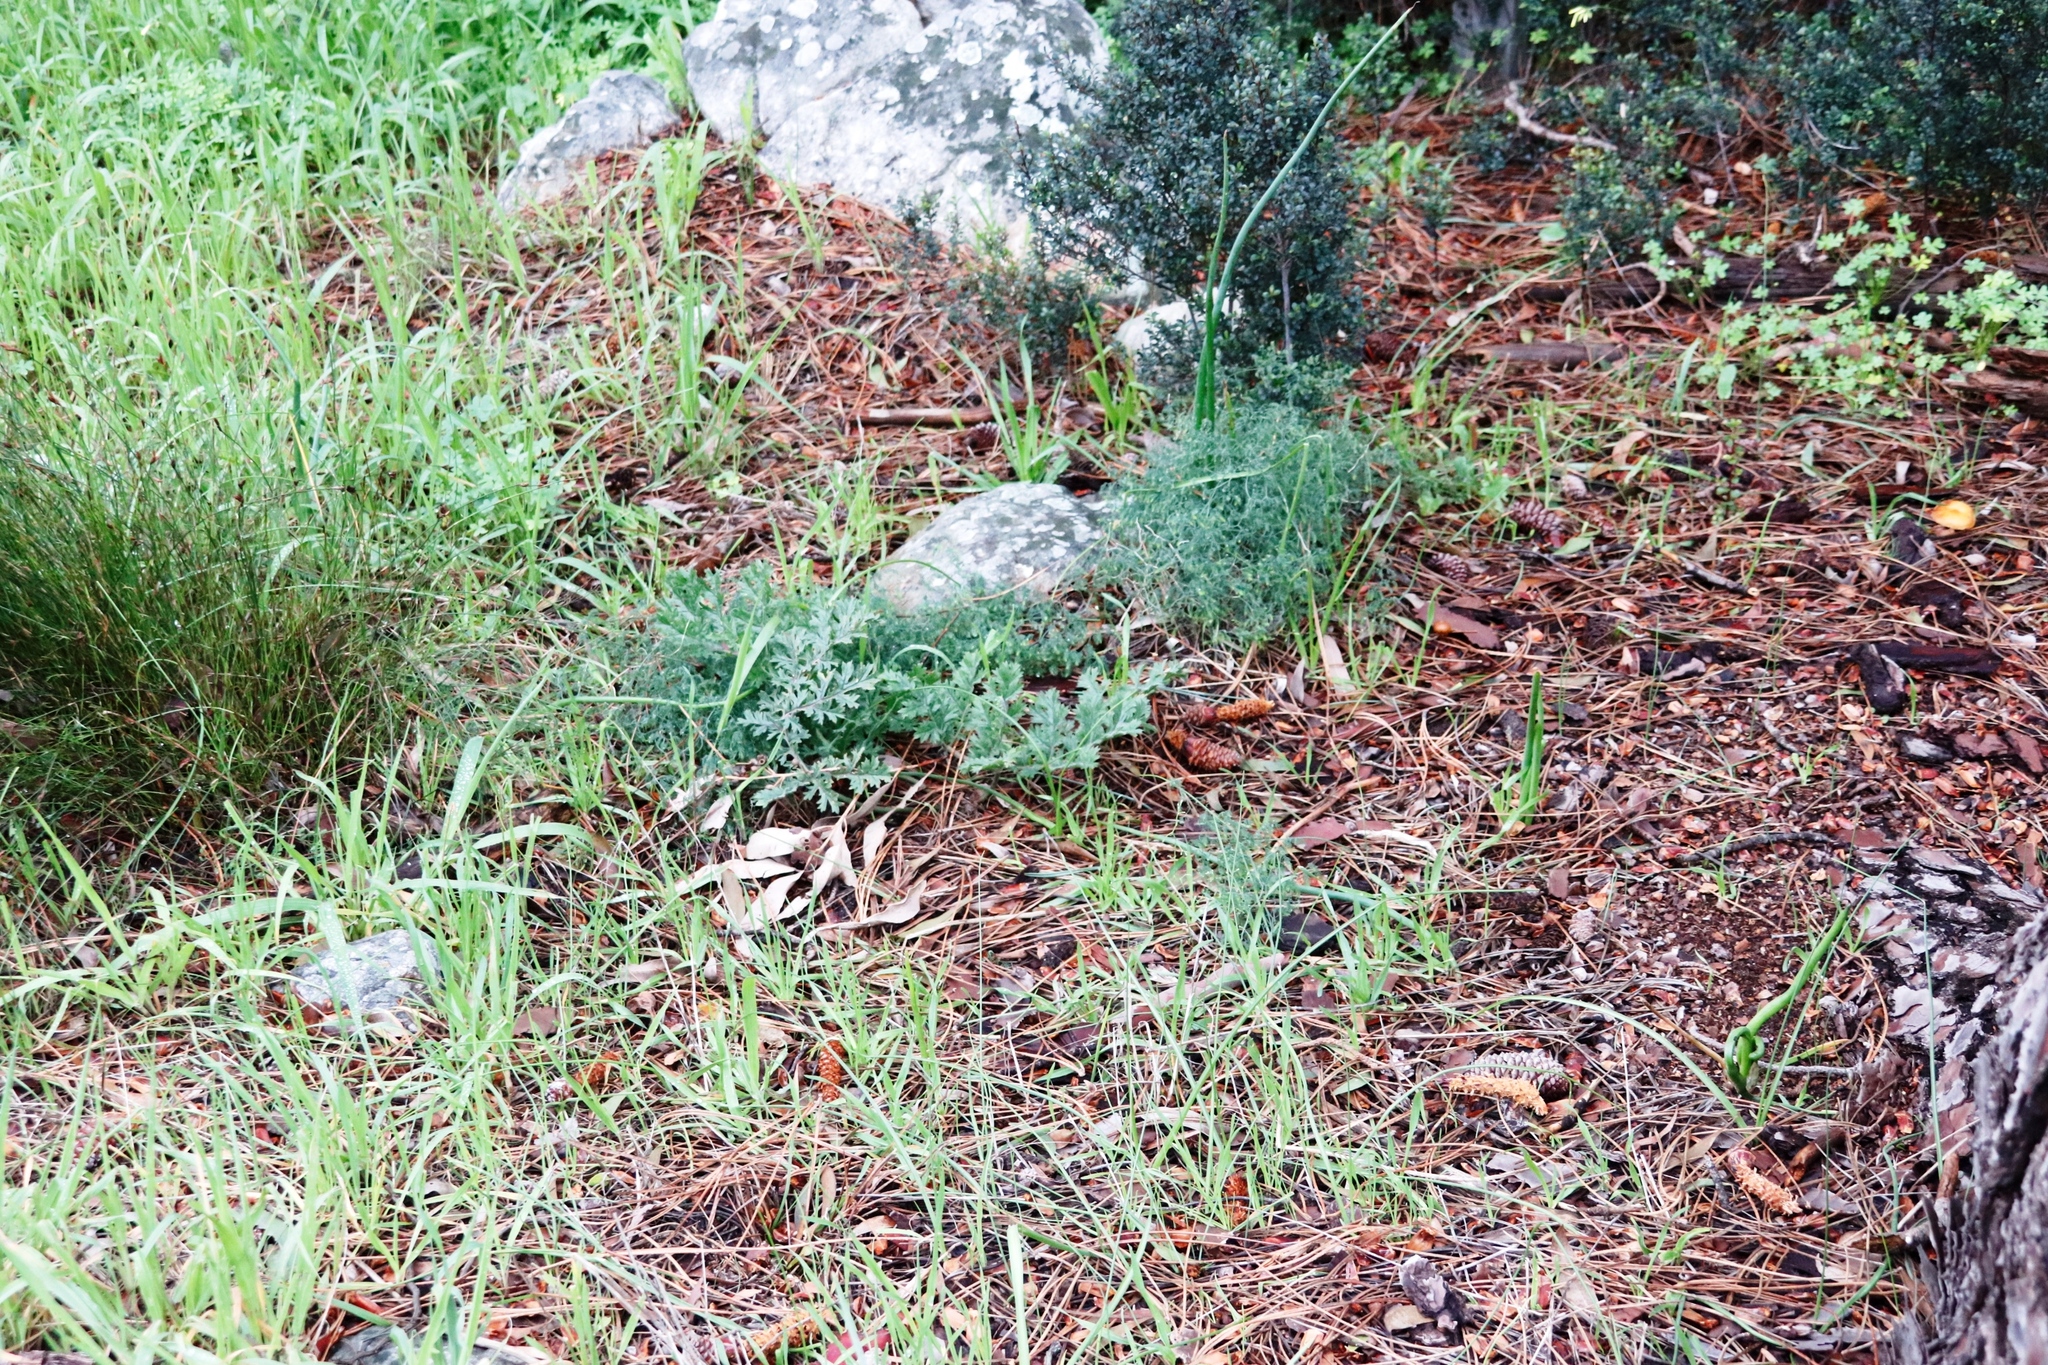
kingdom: Plantae
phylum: Tracheophyta
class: Magnoliopsida
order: Geraniales
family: Geraniaceae
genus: Pelargonium
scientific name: Pelargonium myrrhifolium
